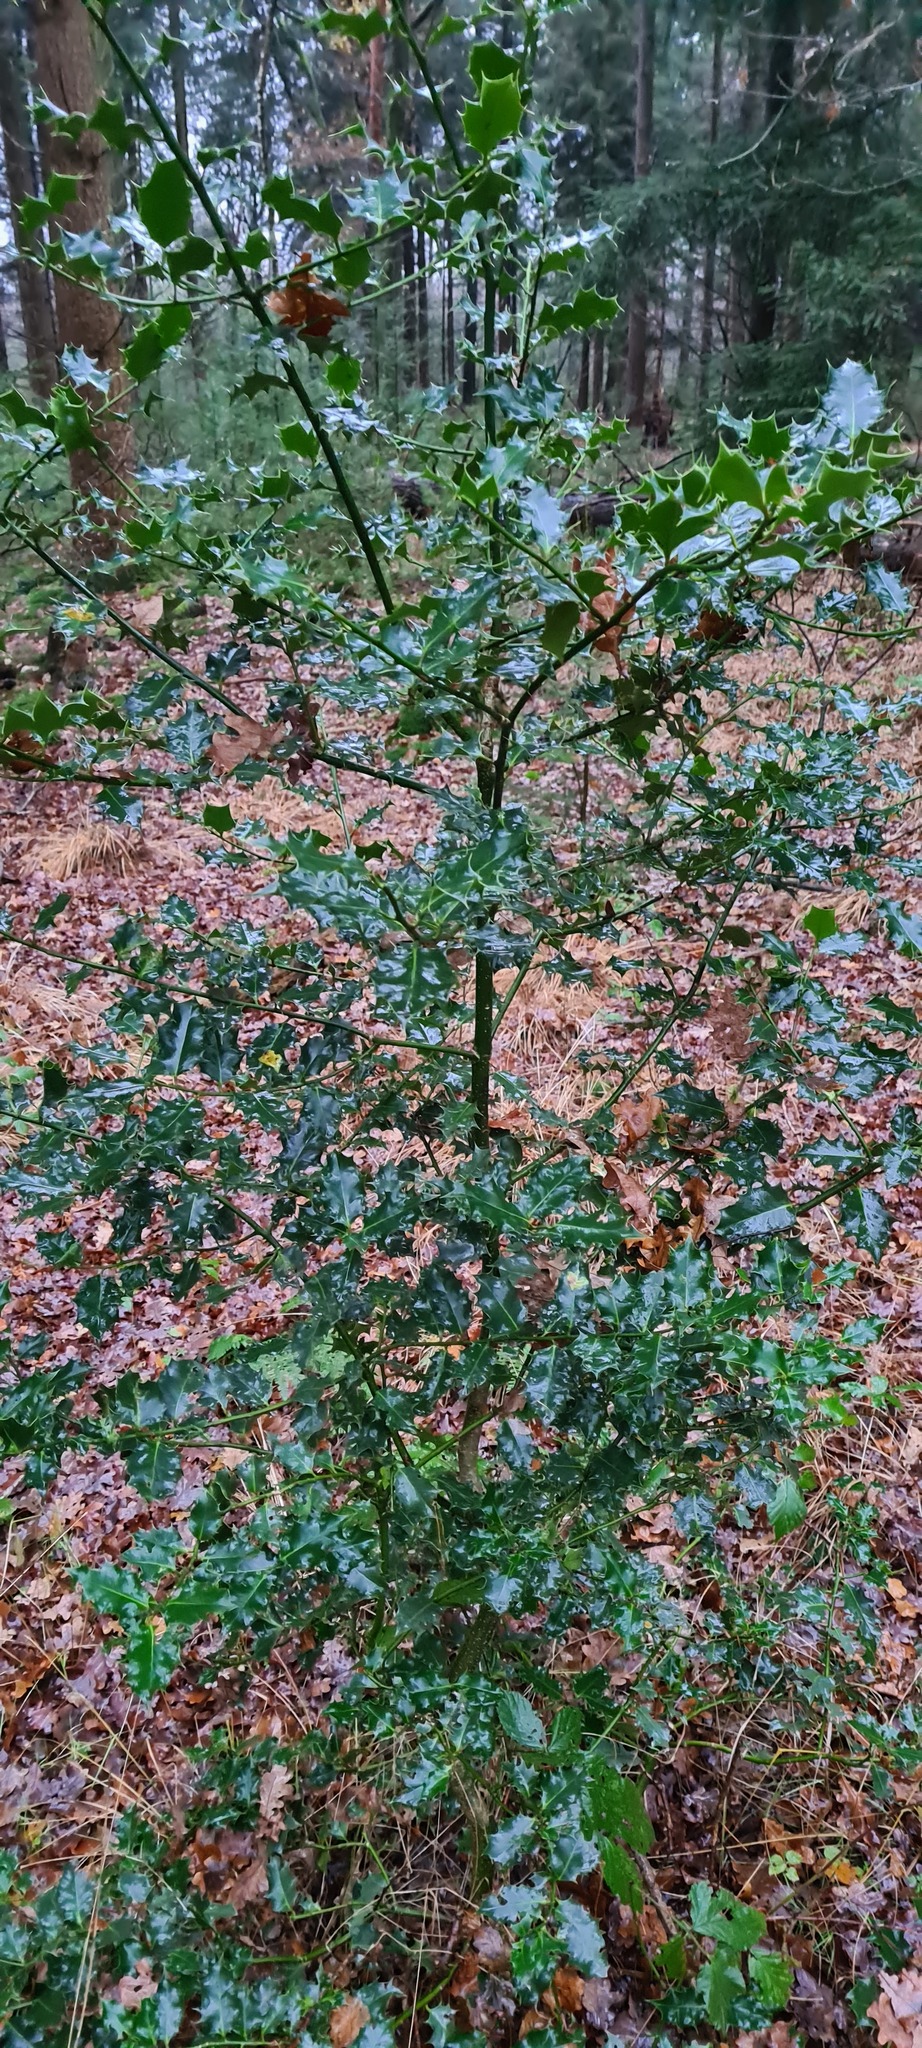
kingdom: Plantae
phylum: Tracheophyta
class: Magnoliopsida
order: Aquifoliales
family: Aquifoliaceae
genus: Ilex
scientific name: Ilex aquifolium
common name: English holly
